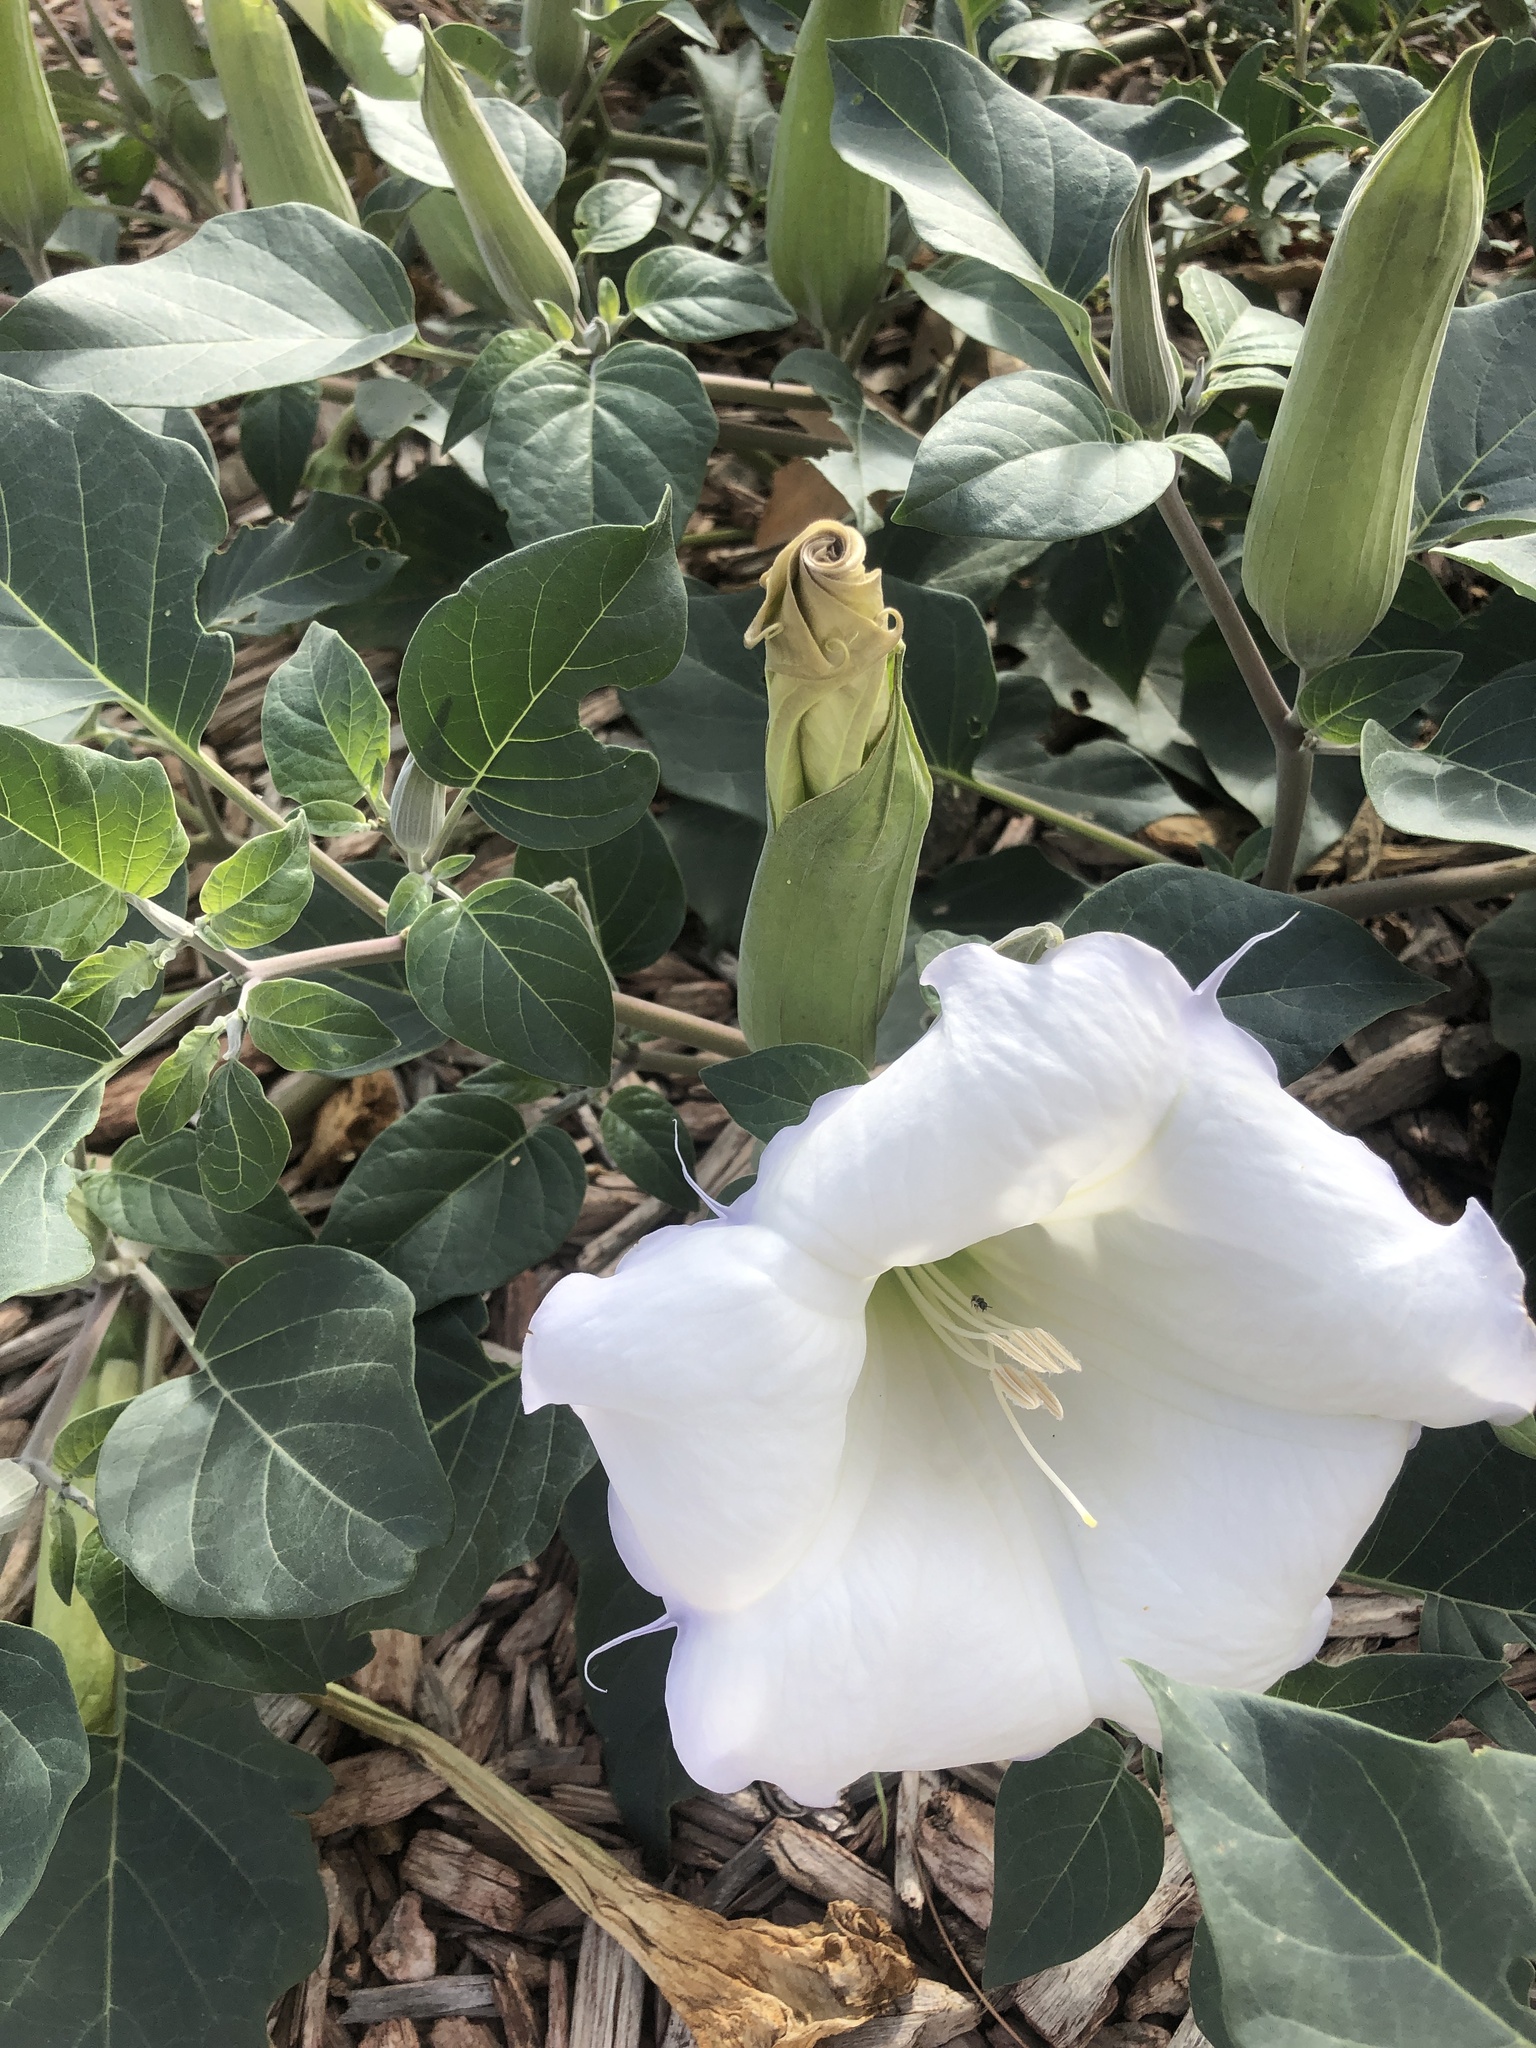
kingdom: Plantae
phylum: Tracheophyta
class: Magnoliopsida
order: Solanales
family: Solanaceae
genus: Datura
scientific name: Datura wrightii
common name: Sacred thorn-apple
